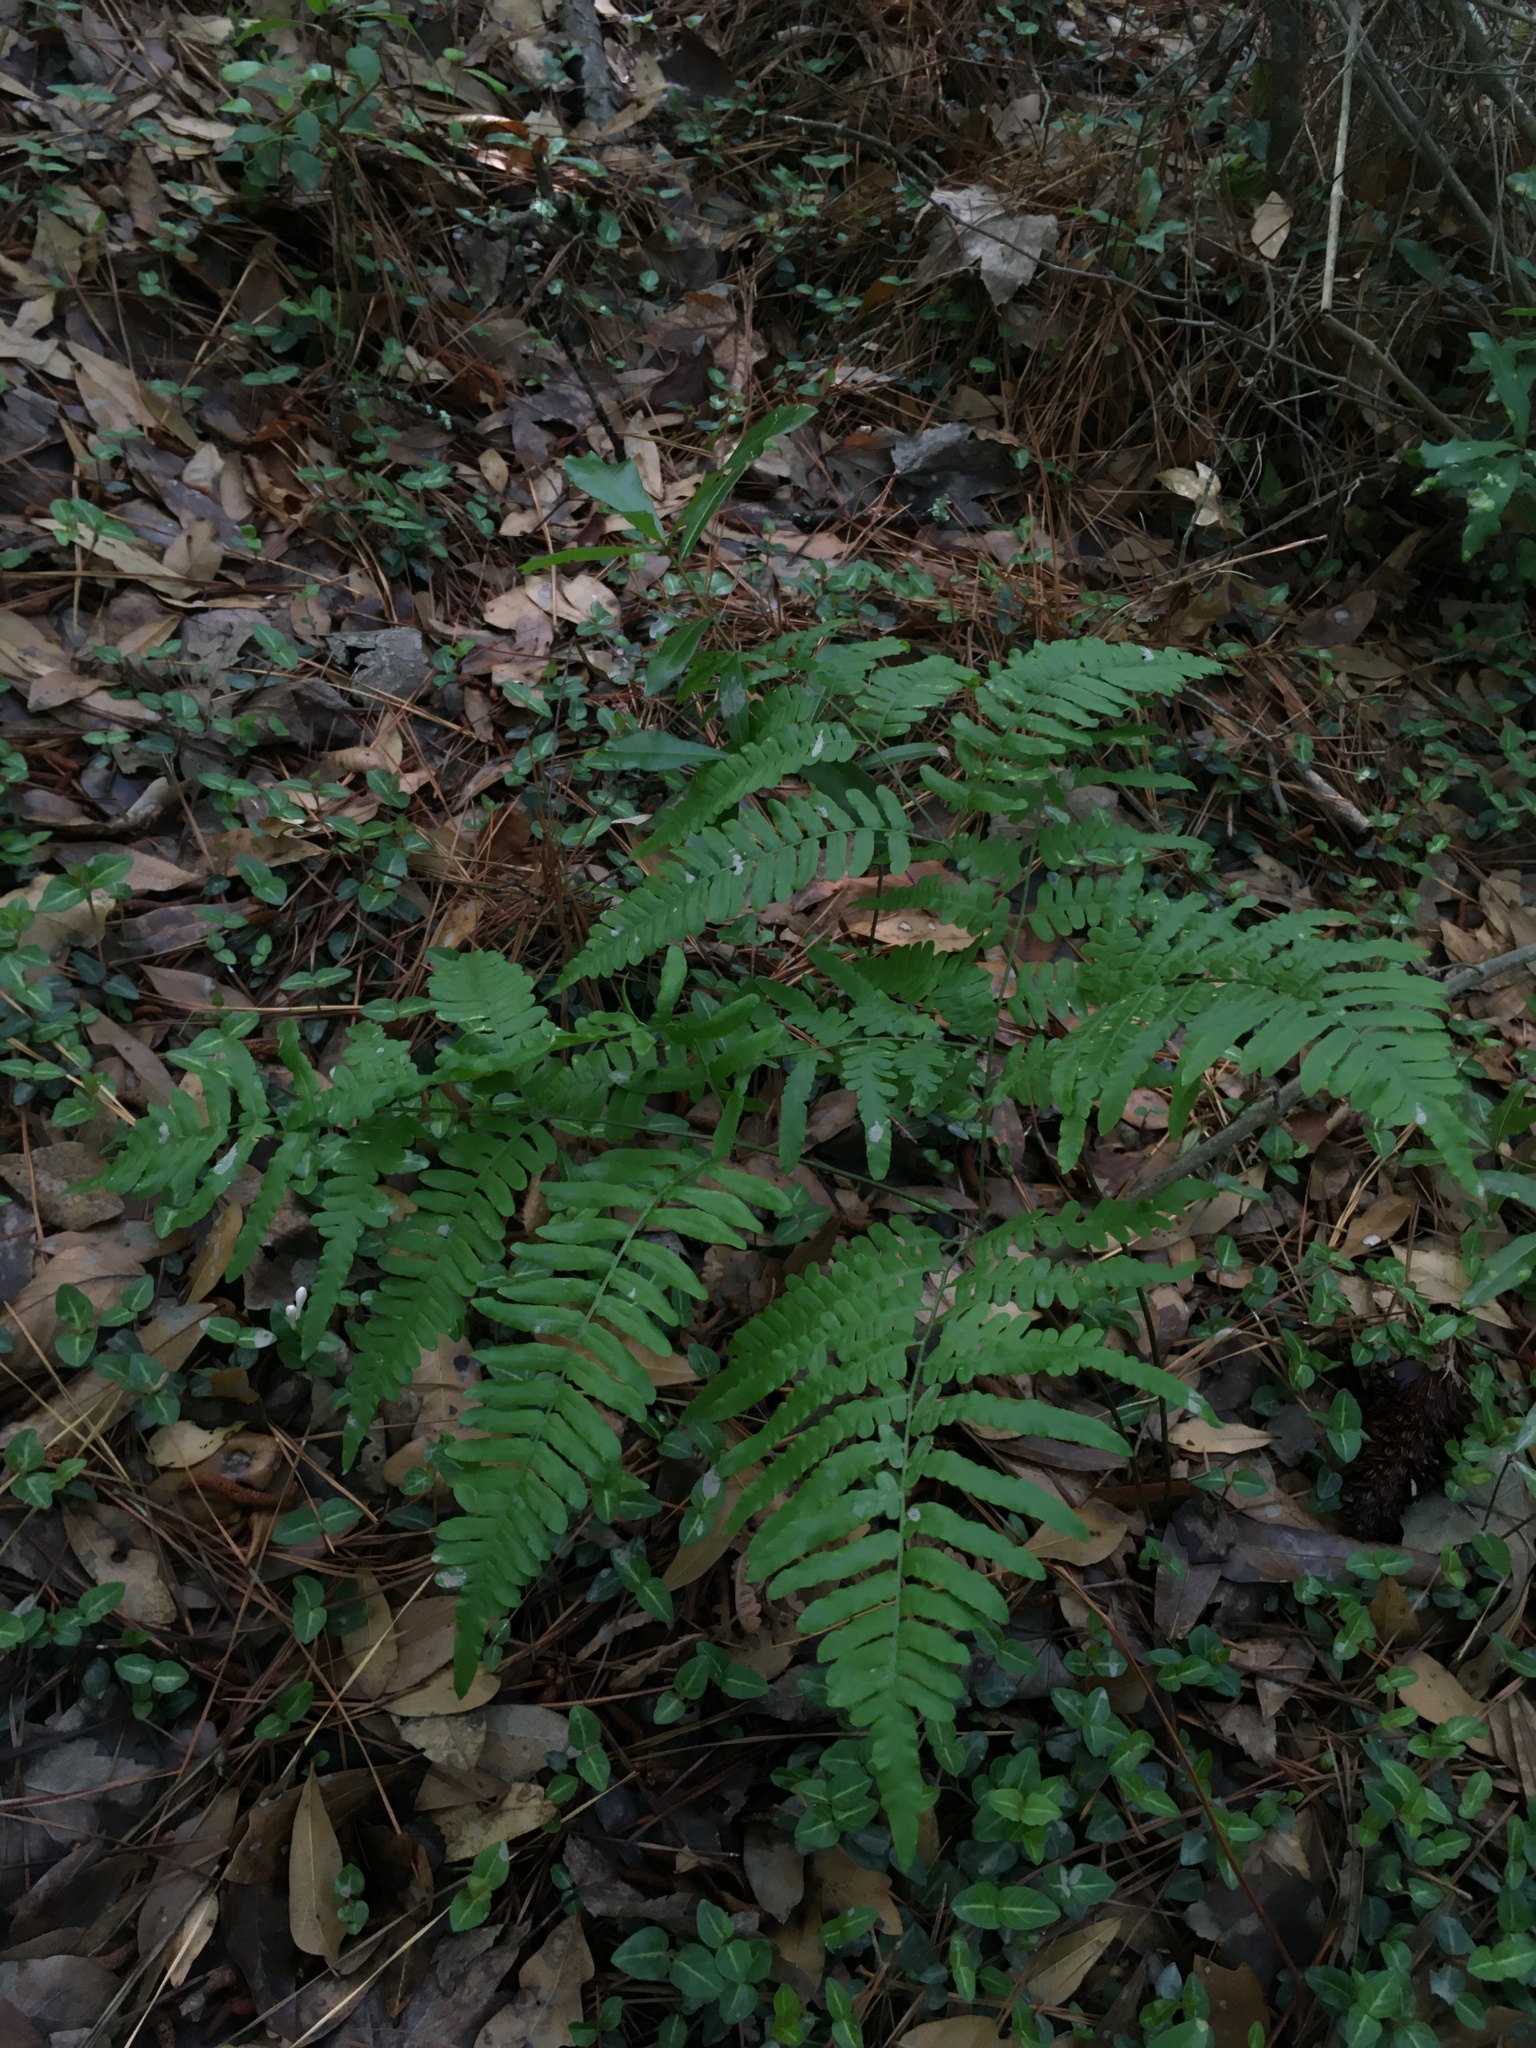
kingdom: Plantae
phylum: Tracheophyta
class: Polypodiopsida
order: Polypodiales
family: Dennstaedtiaceae
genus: Pteridium
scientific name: Pteridium aquilinum
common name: Bracken
